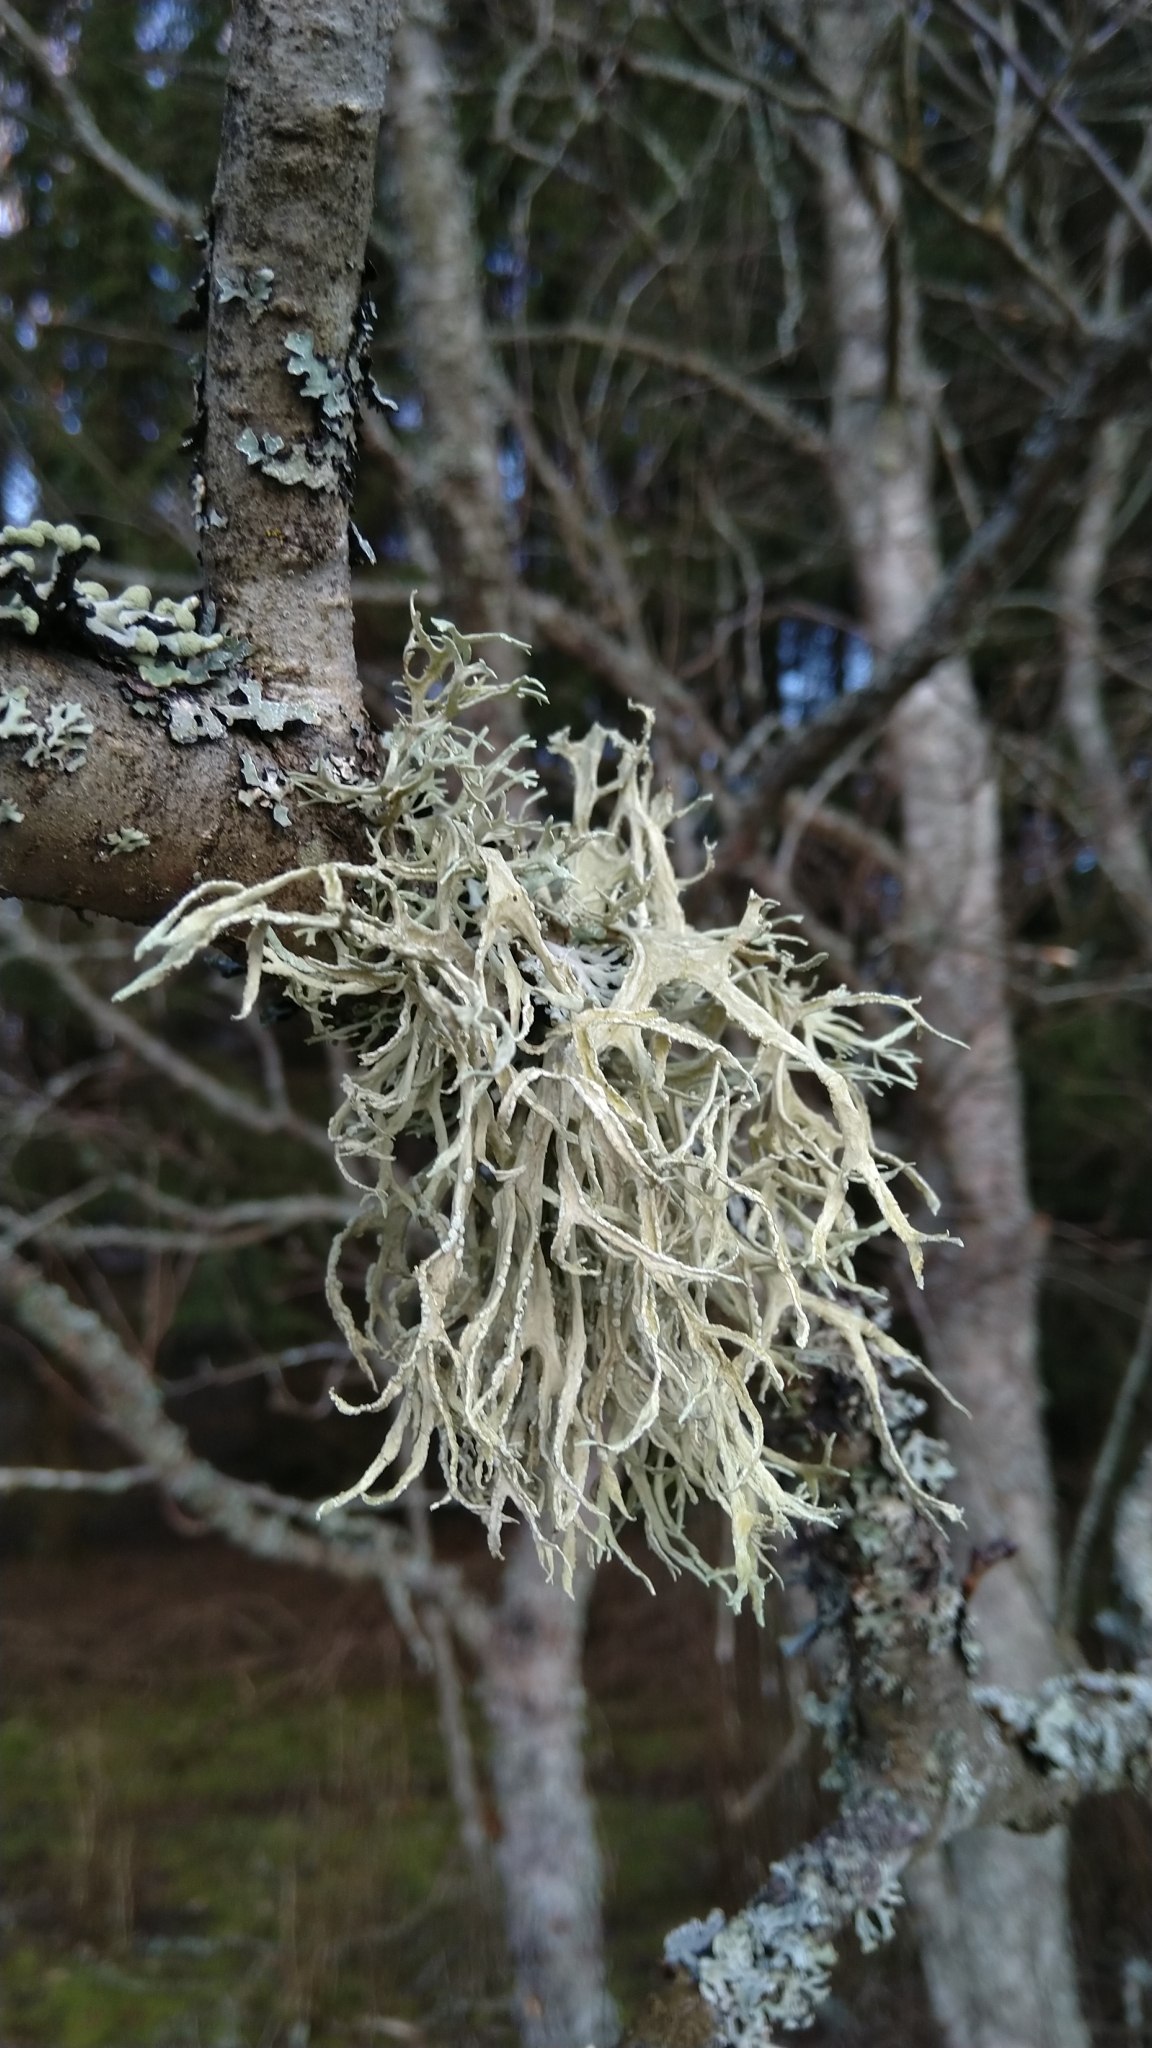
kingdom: Fungi
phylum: Ascomycota
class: Lecanoromycetes
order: Lecanorales
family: Ramalinaceae
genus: Ramalina
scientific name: Ramalina farinacea
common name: Farinose cartilage lichen
